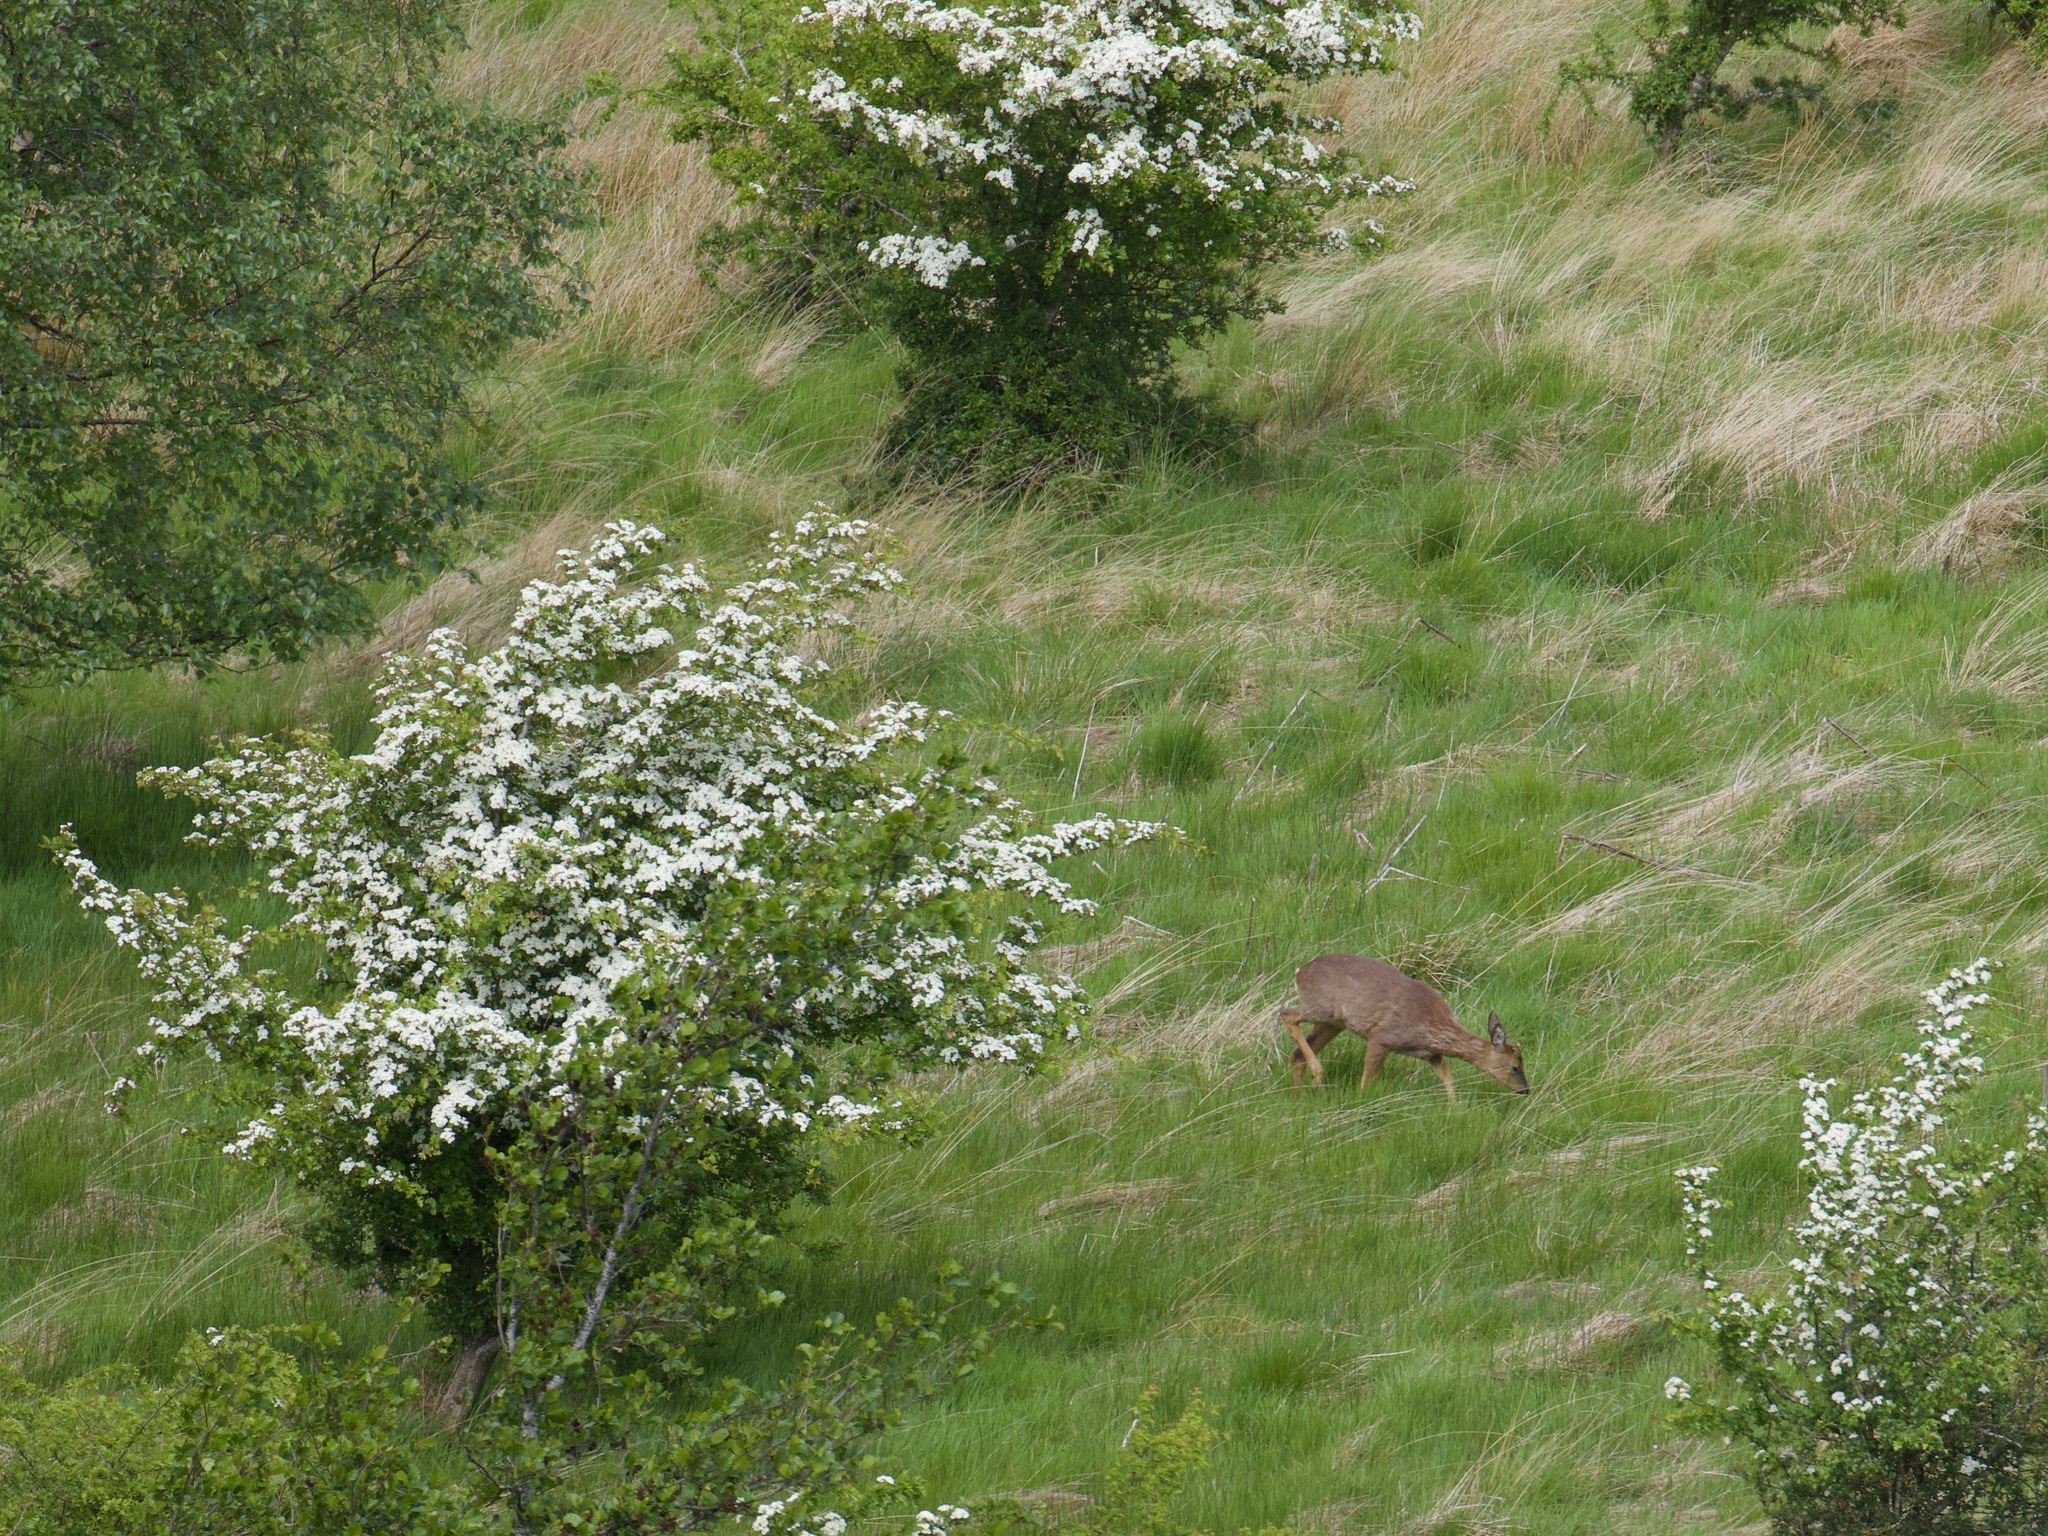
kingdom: Animalia
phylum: Chordata
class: Mammalia
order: Artiodactyla
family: Cervidae
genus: Capreolus
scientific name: Capreolus capreolus
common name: Western roe deer
